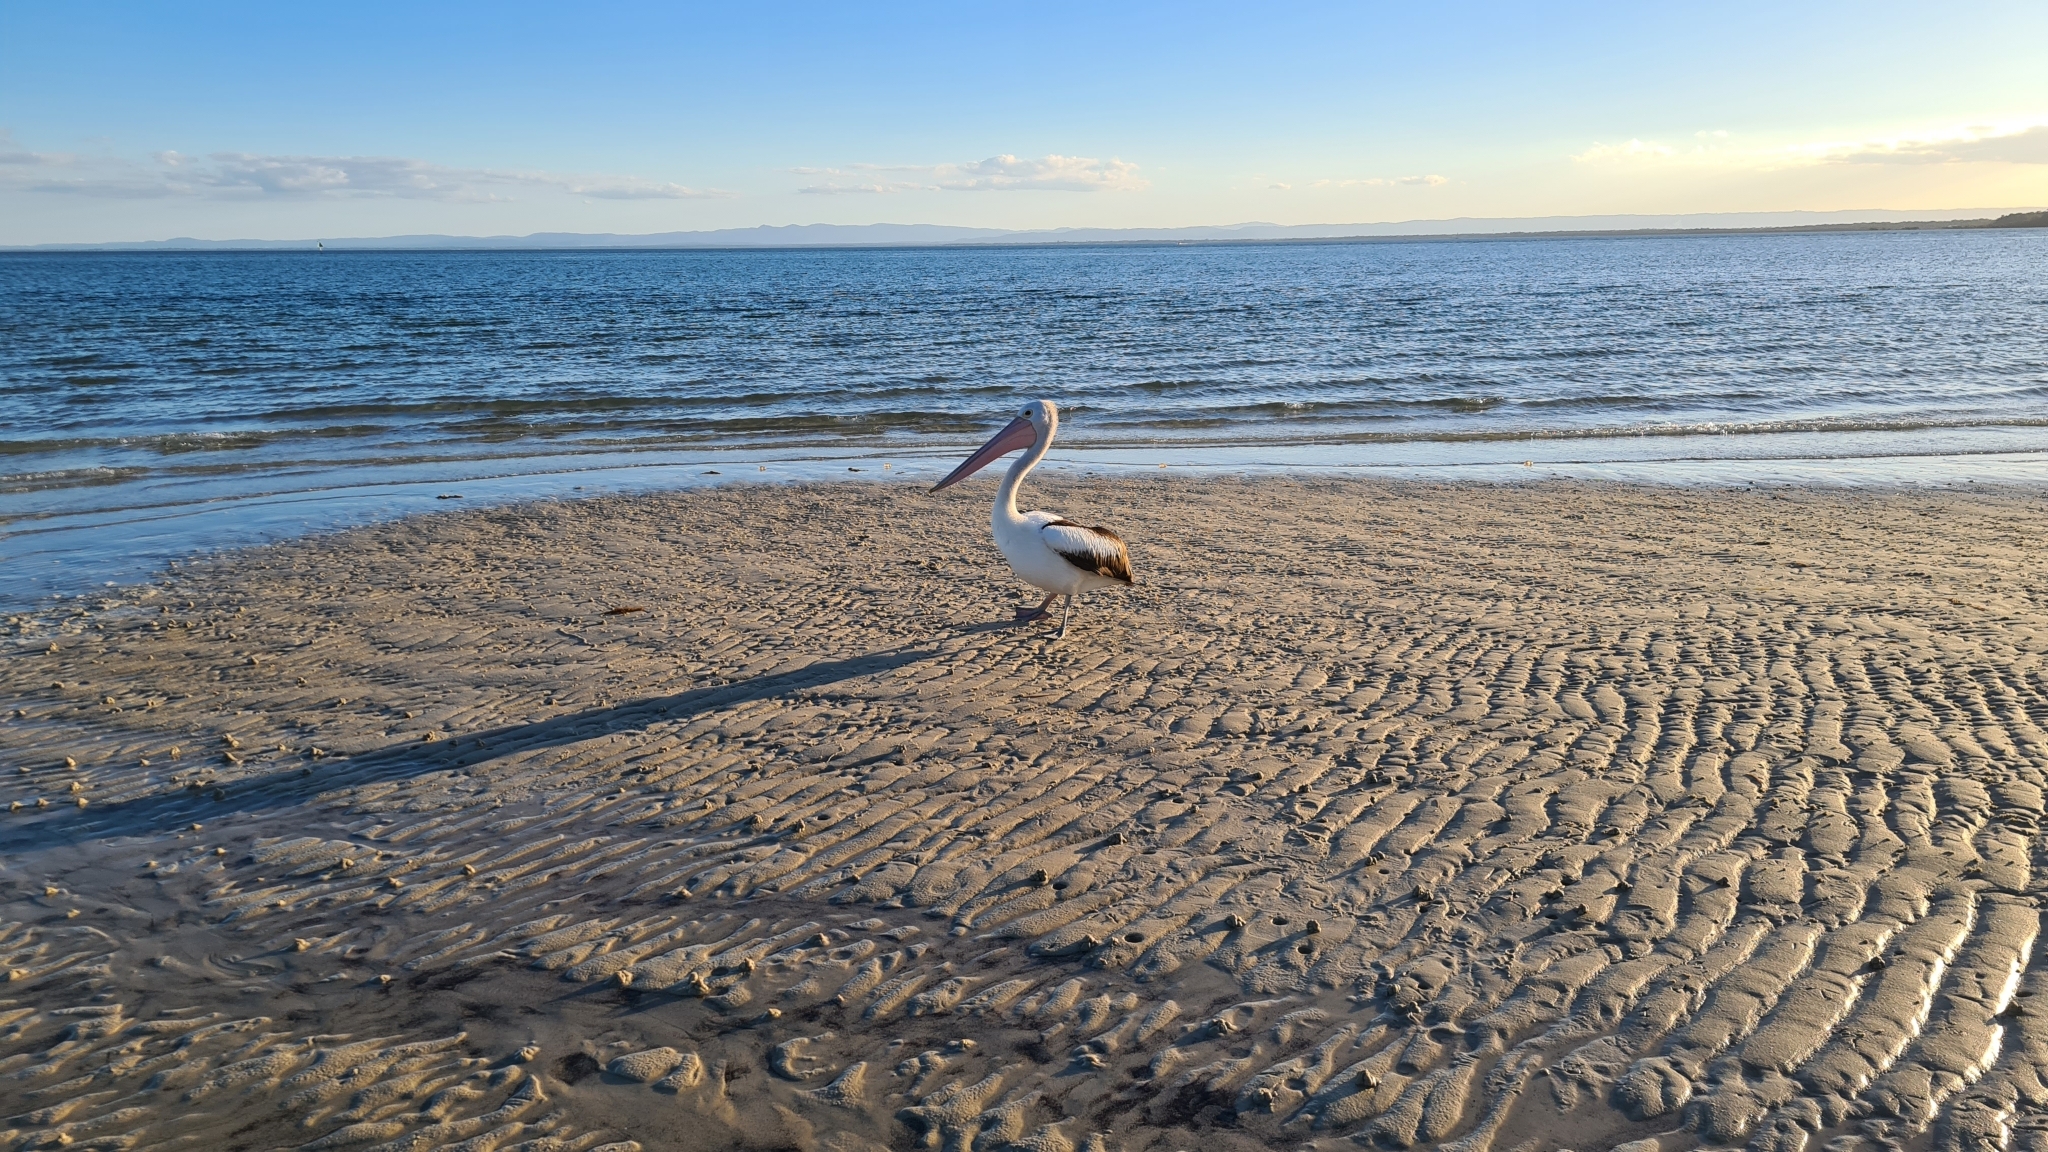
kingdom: Animalia
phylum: Chordata
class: Aves
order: Pelecaniformes
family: Pelecanidae
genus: Pelecanus
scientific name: Pelecanus conspicillatus
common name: Australian pelican
